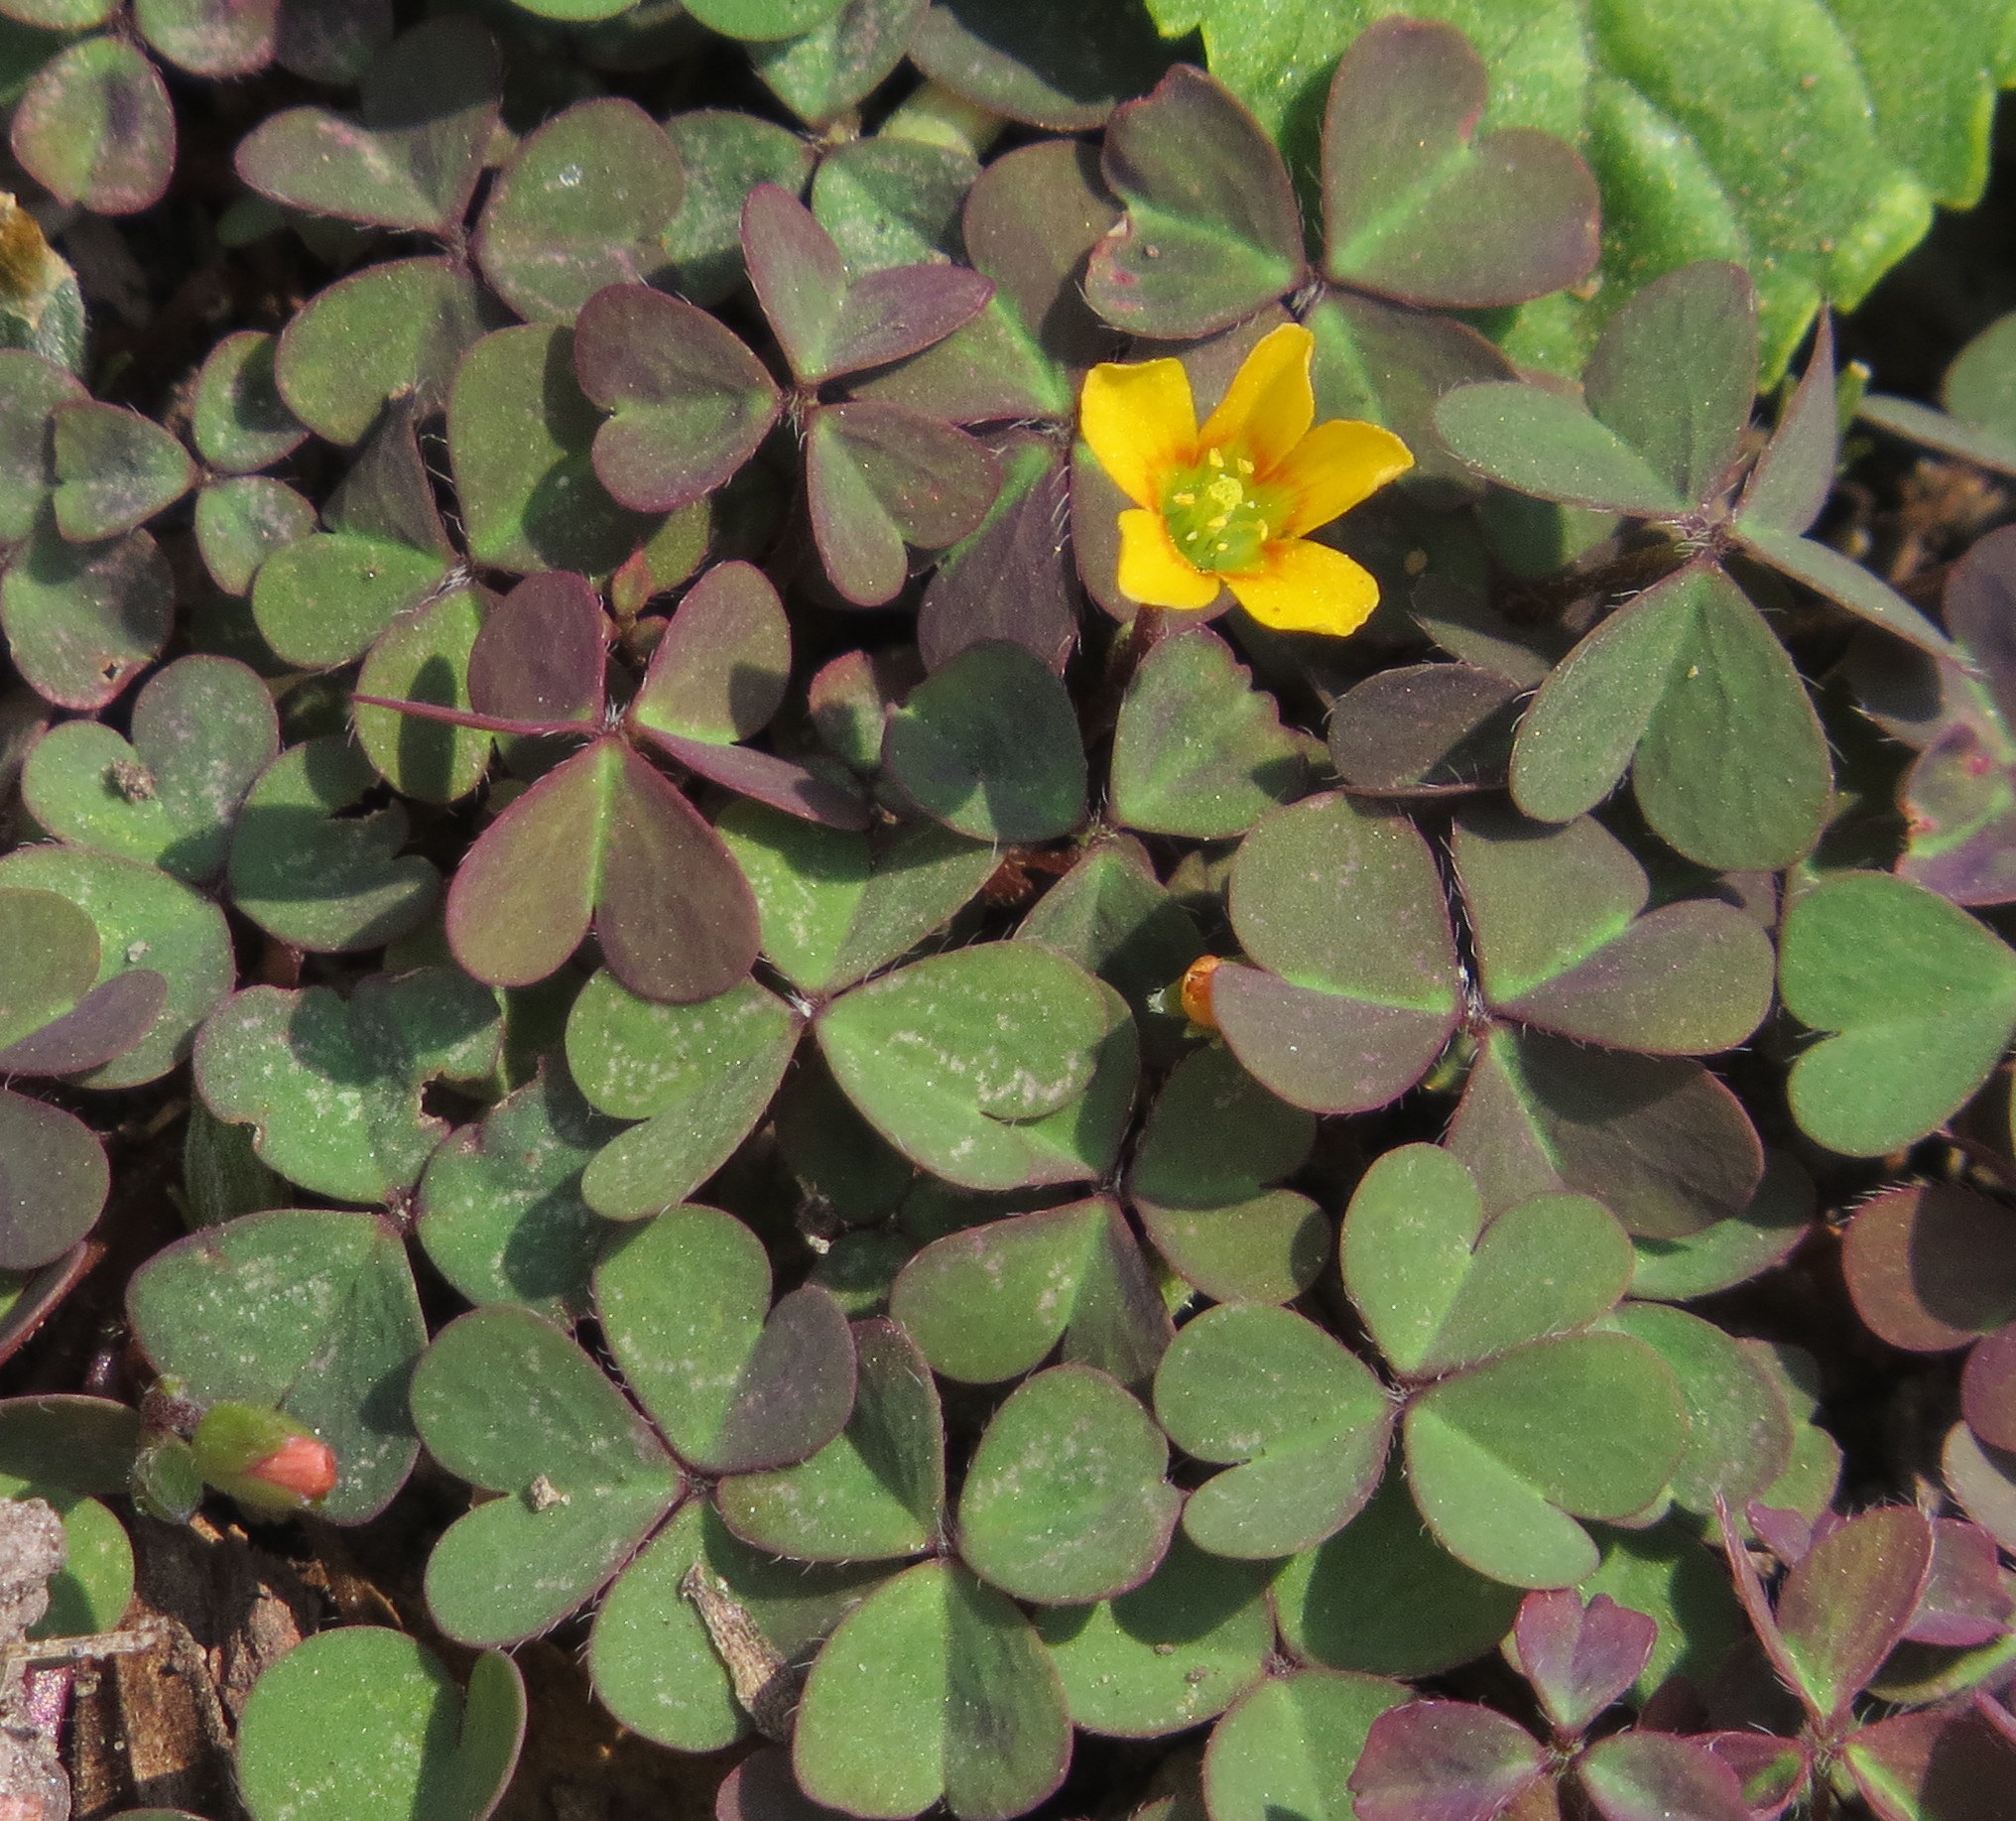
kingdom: Plantae
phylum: Tracheophyta
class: Magnoliopsida
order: Oxalidales
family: Oxalidaceae
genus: Oxalis
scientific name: Oxalis corniculata
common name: Procumbent yellow-sorrel
